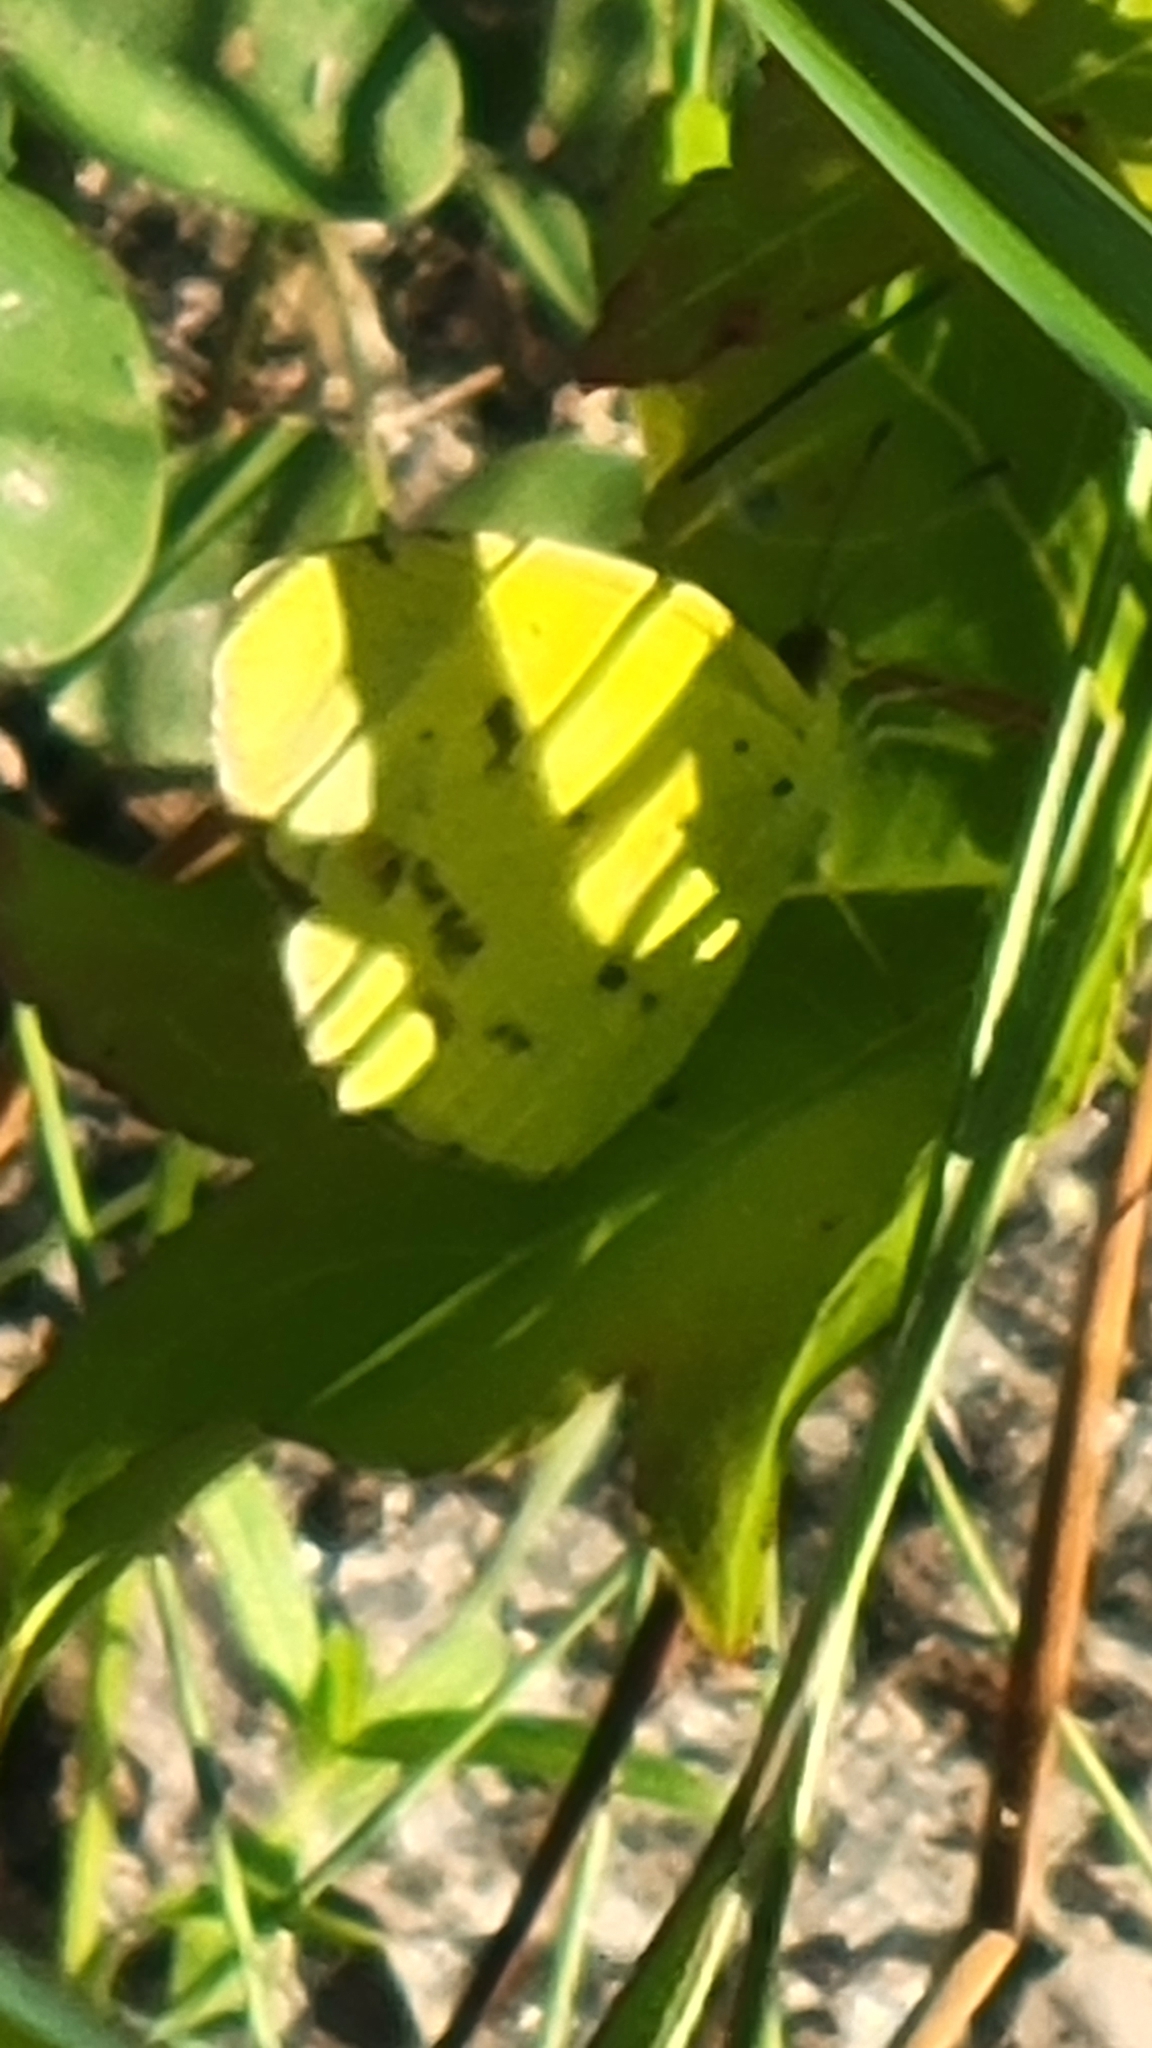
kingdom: Animalia
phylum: Arthropoda
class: Insecta
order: Lepidoptera
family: Pieridae
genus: Pyrisitia
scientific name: Pyrisitia lisa
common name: Little yellow
